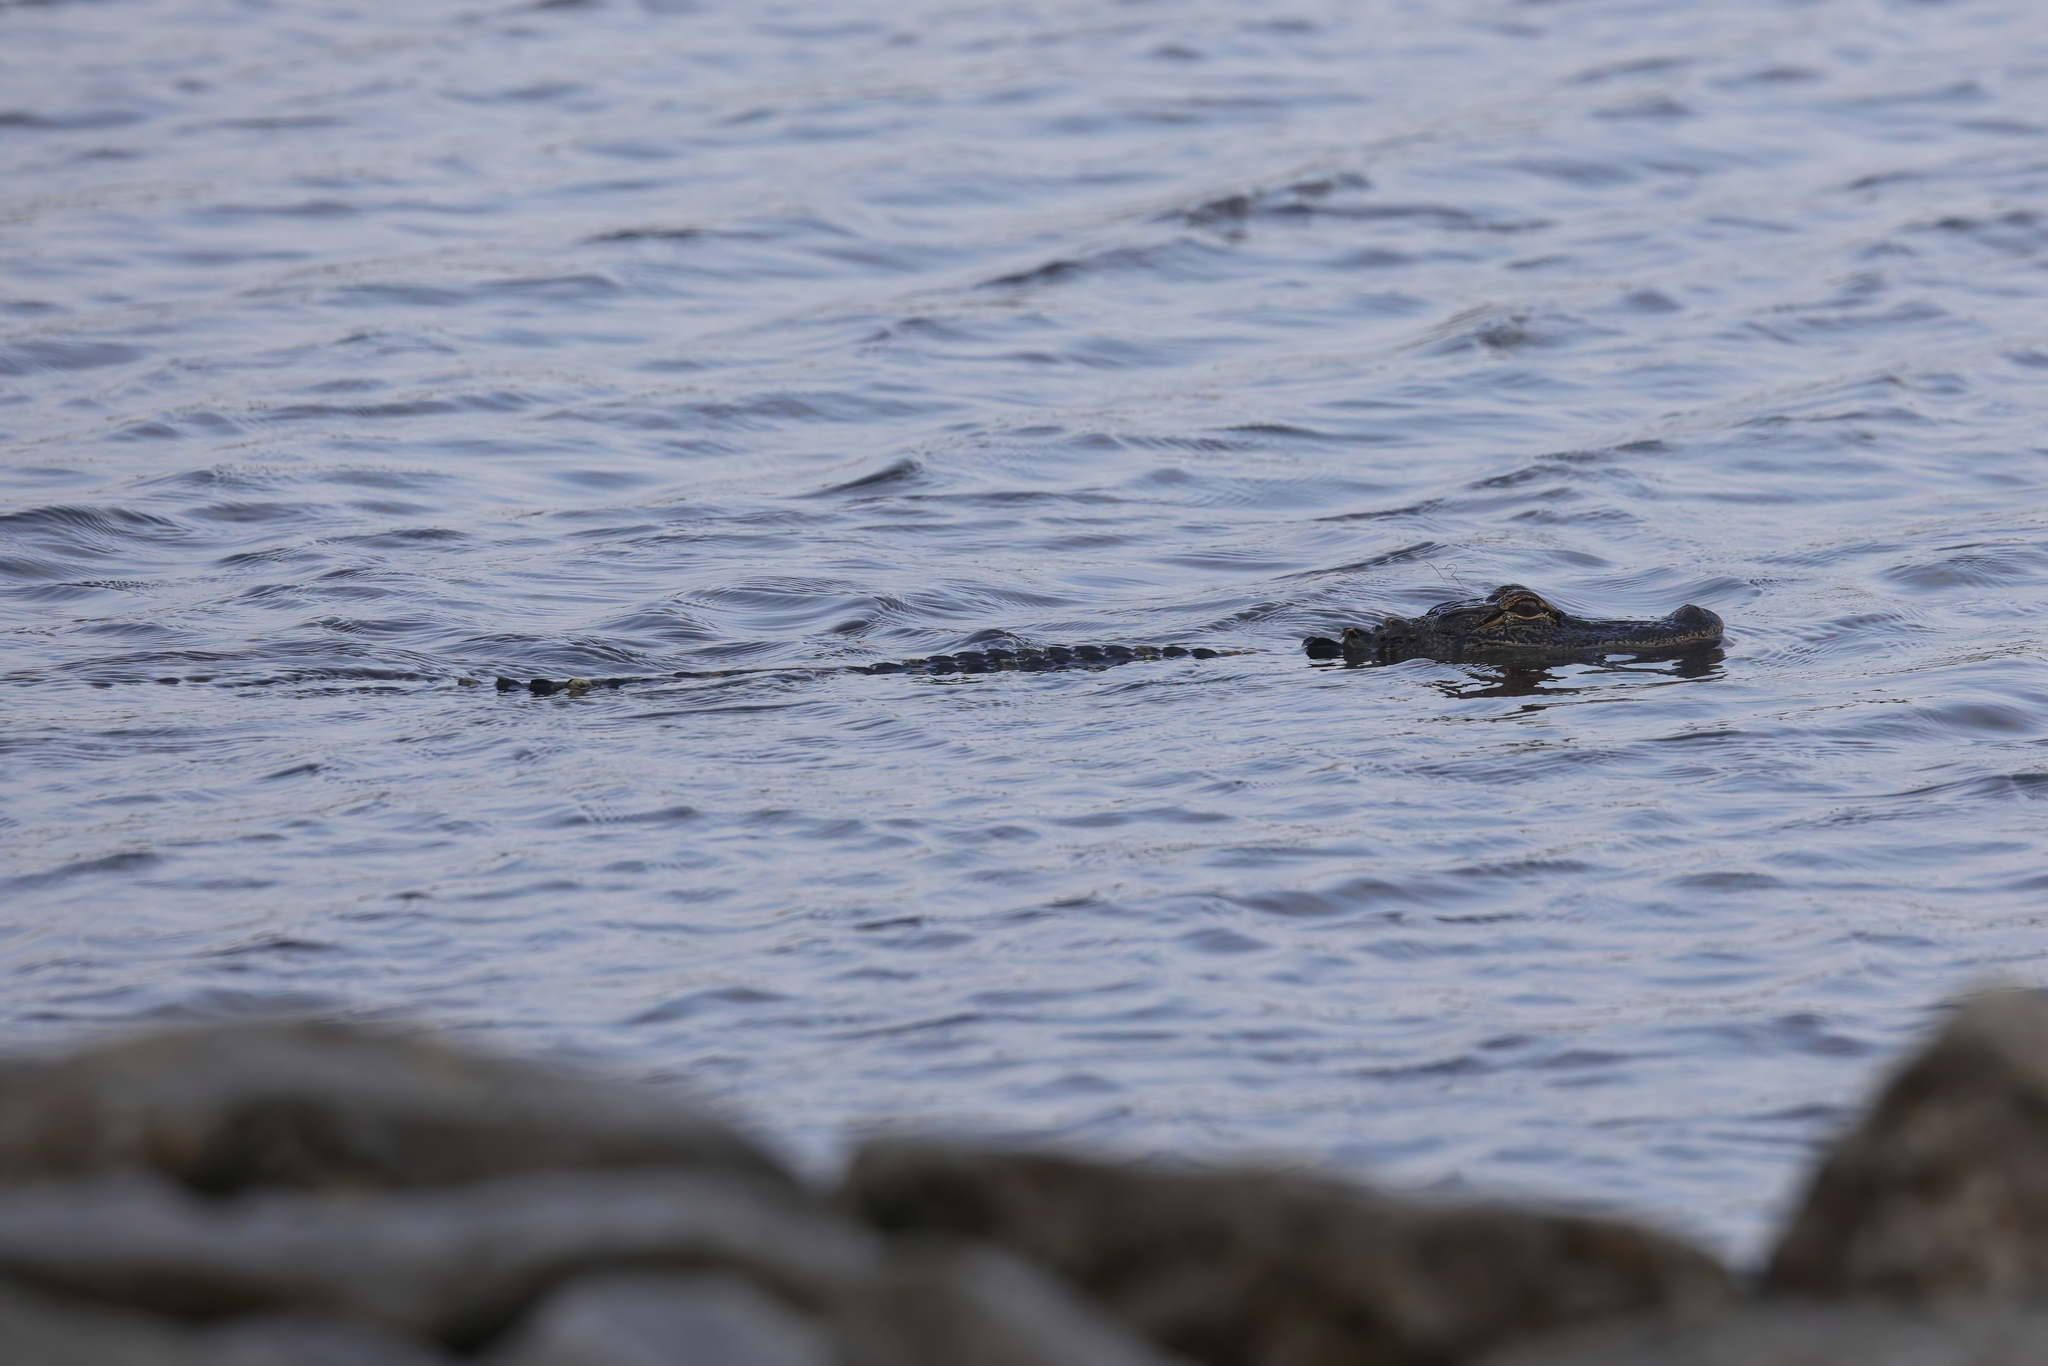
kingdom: Animalia
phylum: Chordata
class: Crocodylia
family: Alligatoridae
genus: Alligator
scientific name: Alligator mississippiensis
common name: American alligator
